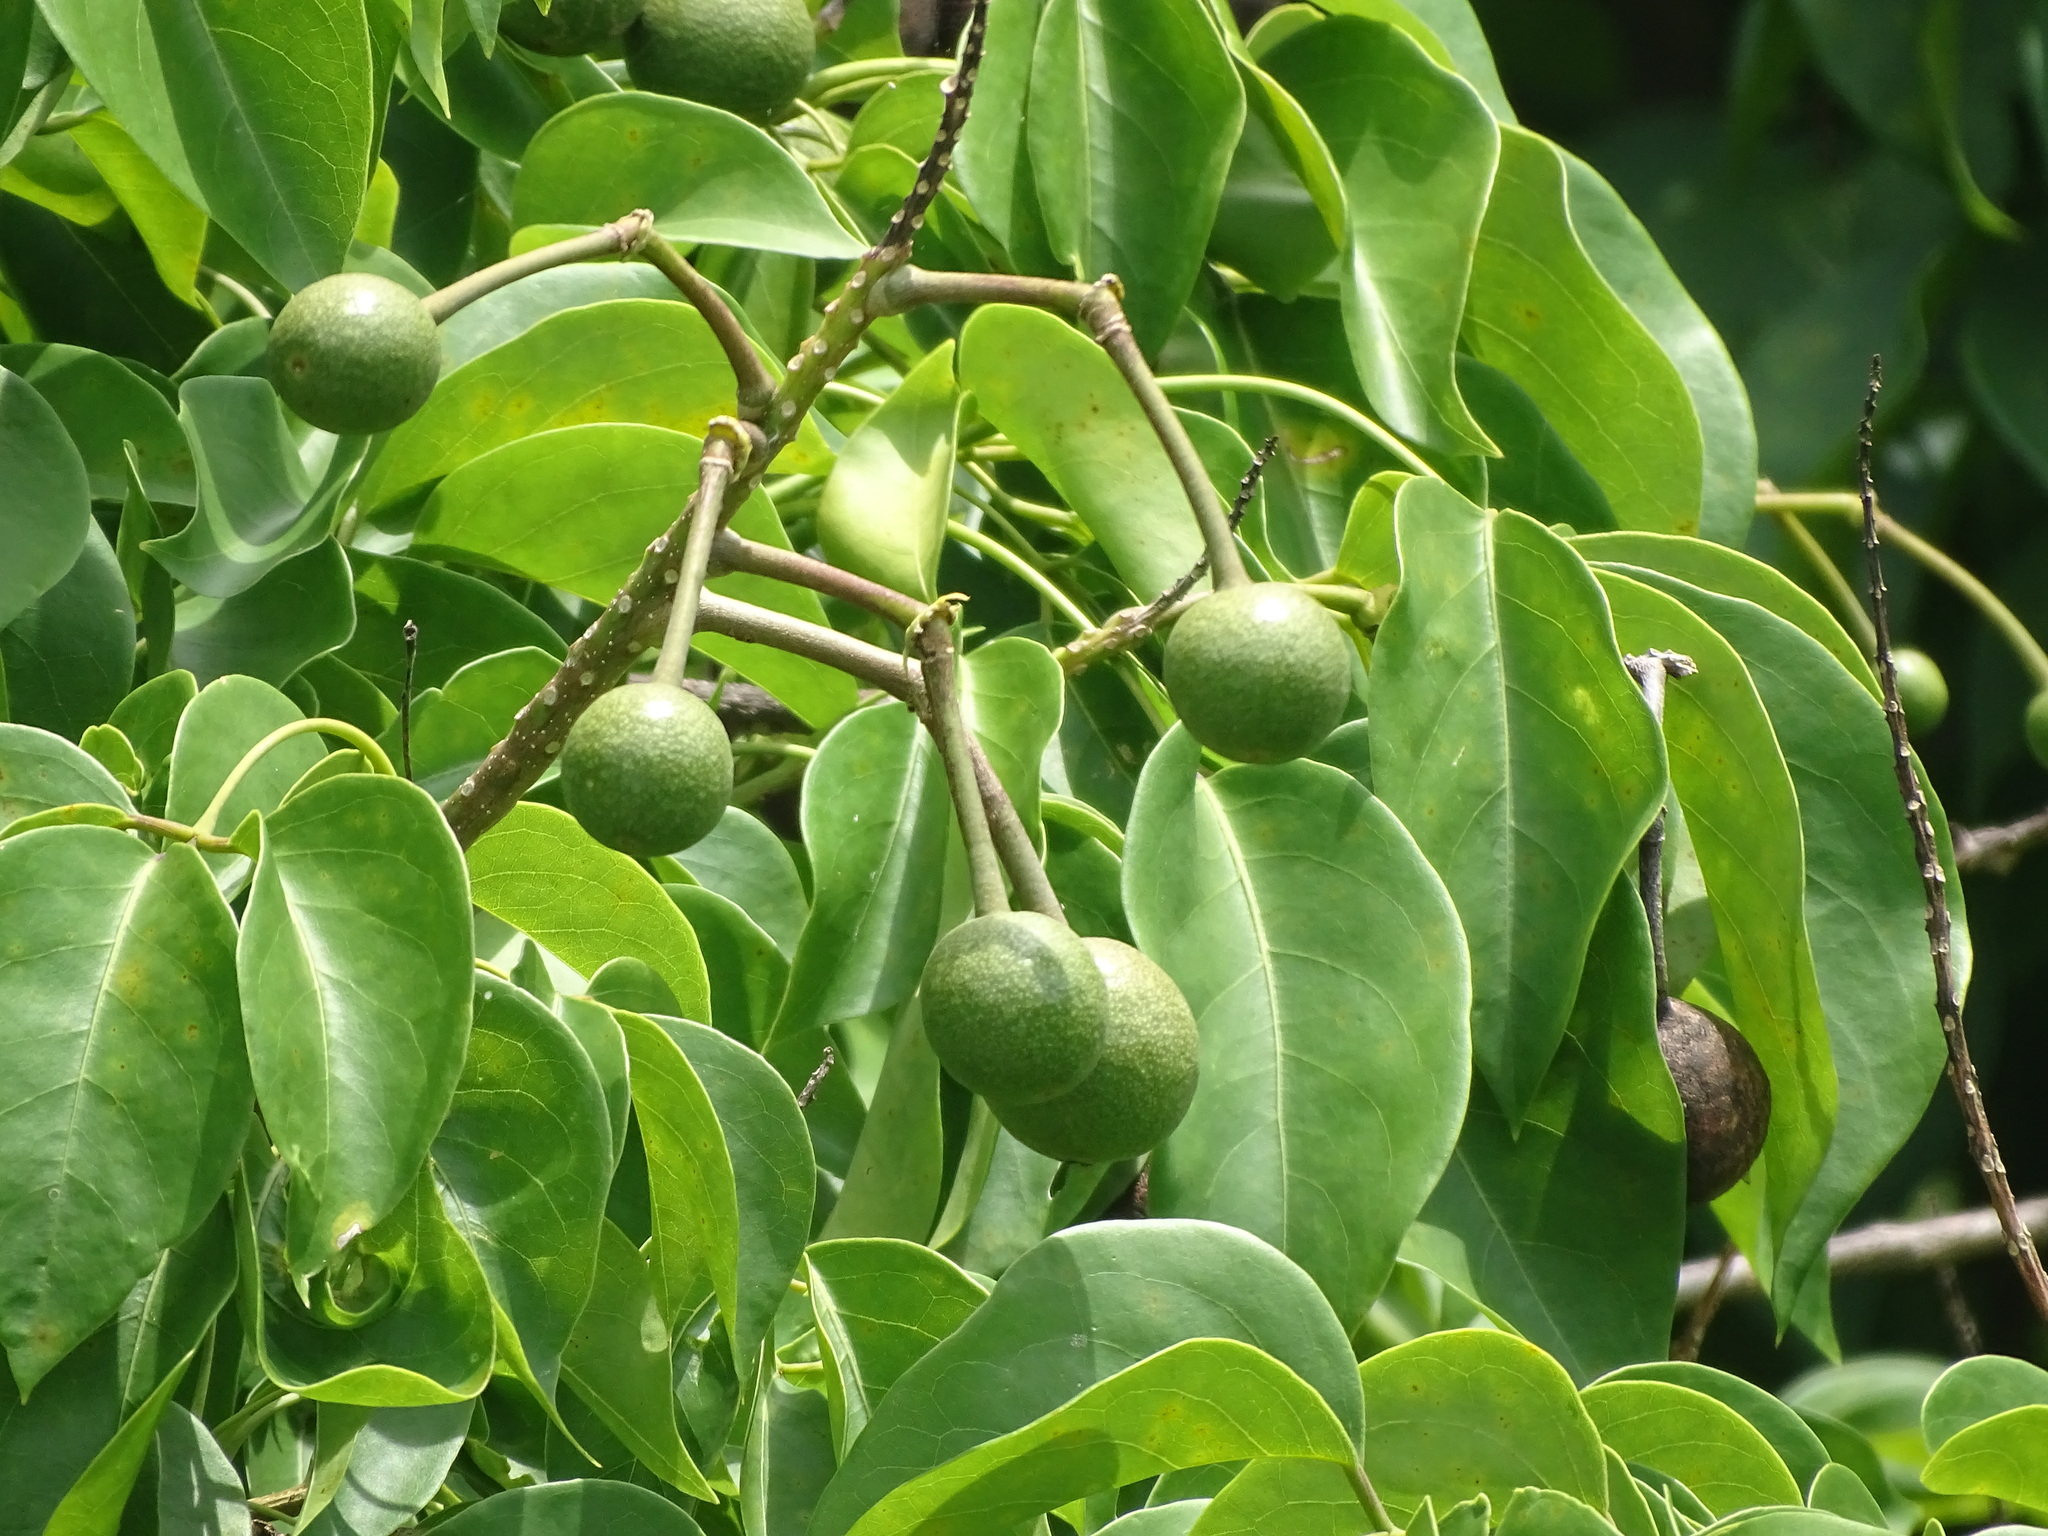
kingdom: Plantae
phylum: Tracheophyta
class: Magnoliopsida
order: Brassicales
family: Capparaceae
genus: Crateva
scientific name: Crateva tapia
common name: Garlic-pear
